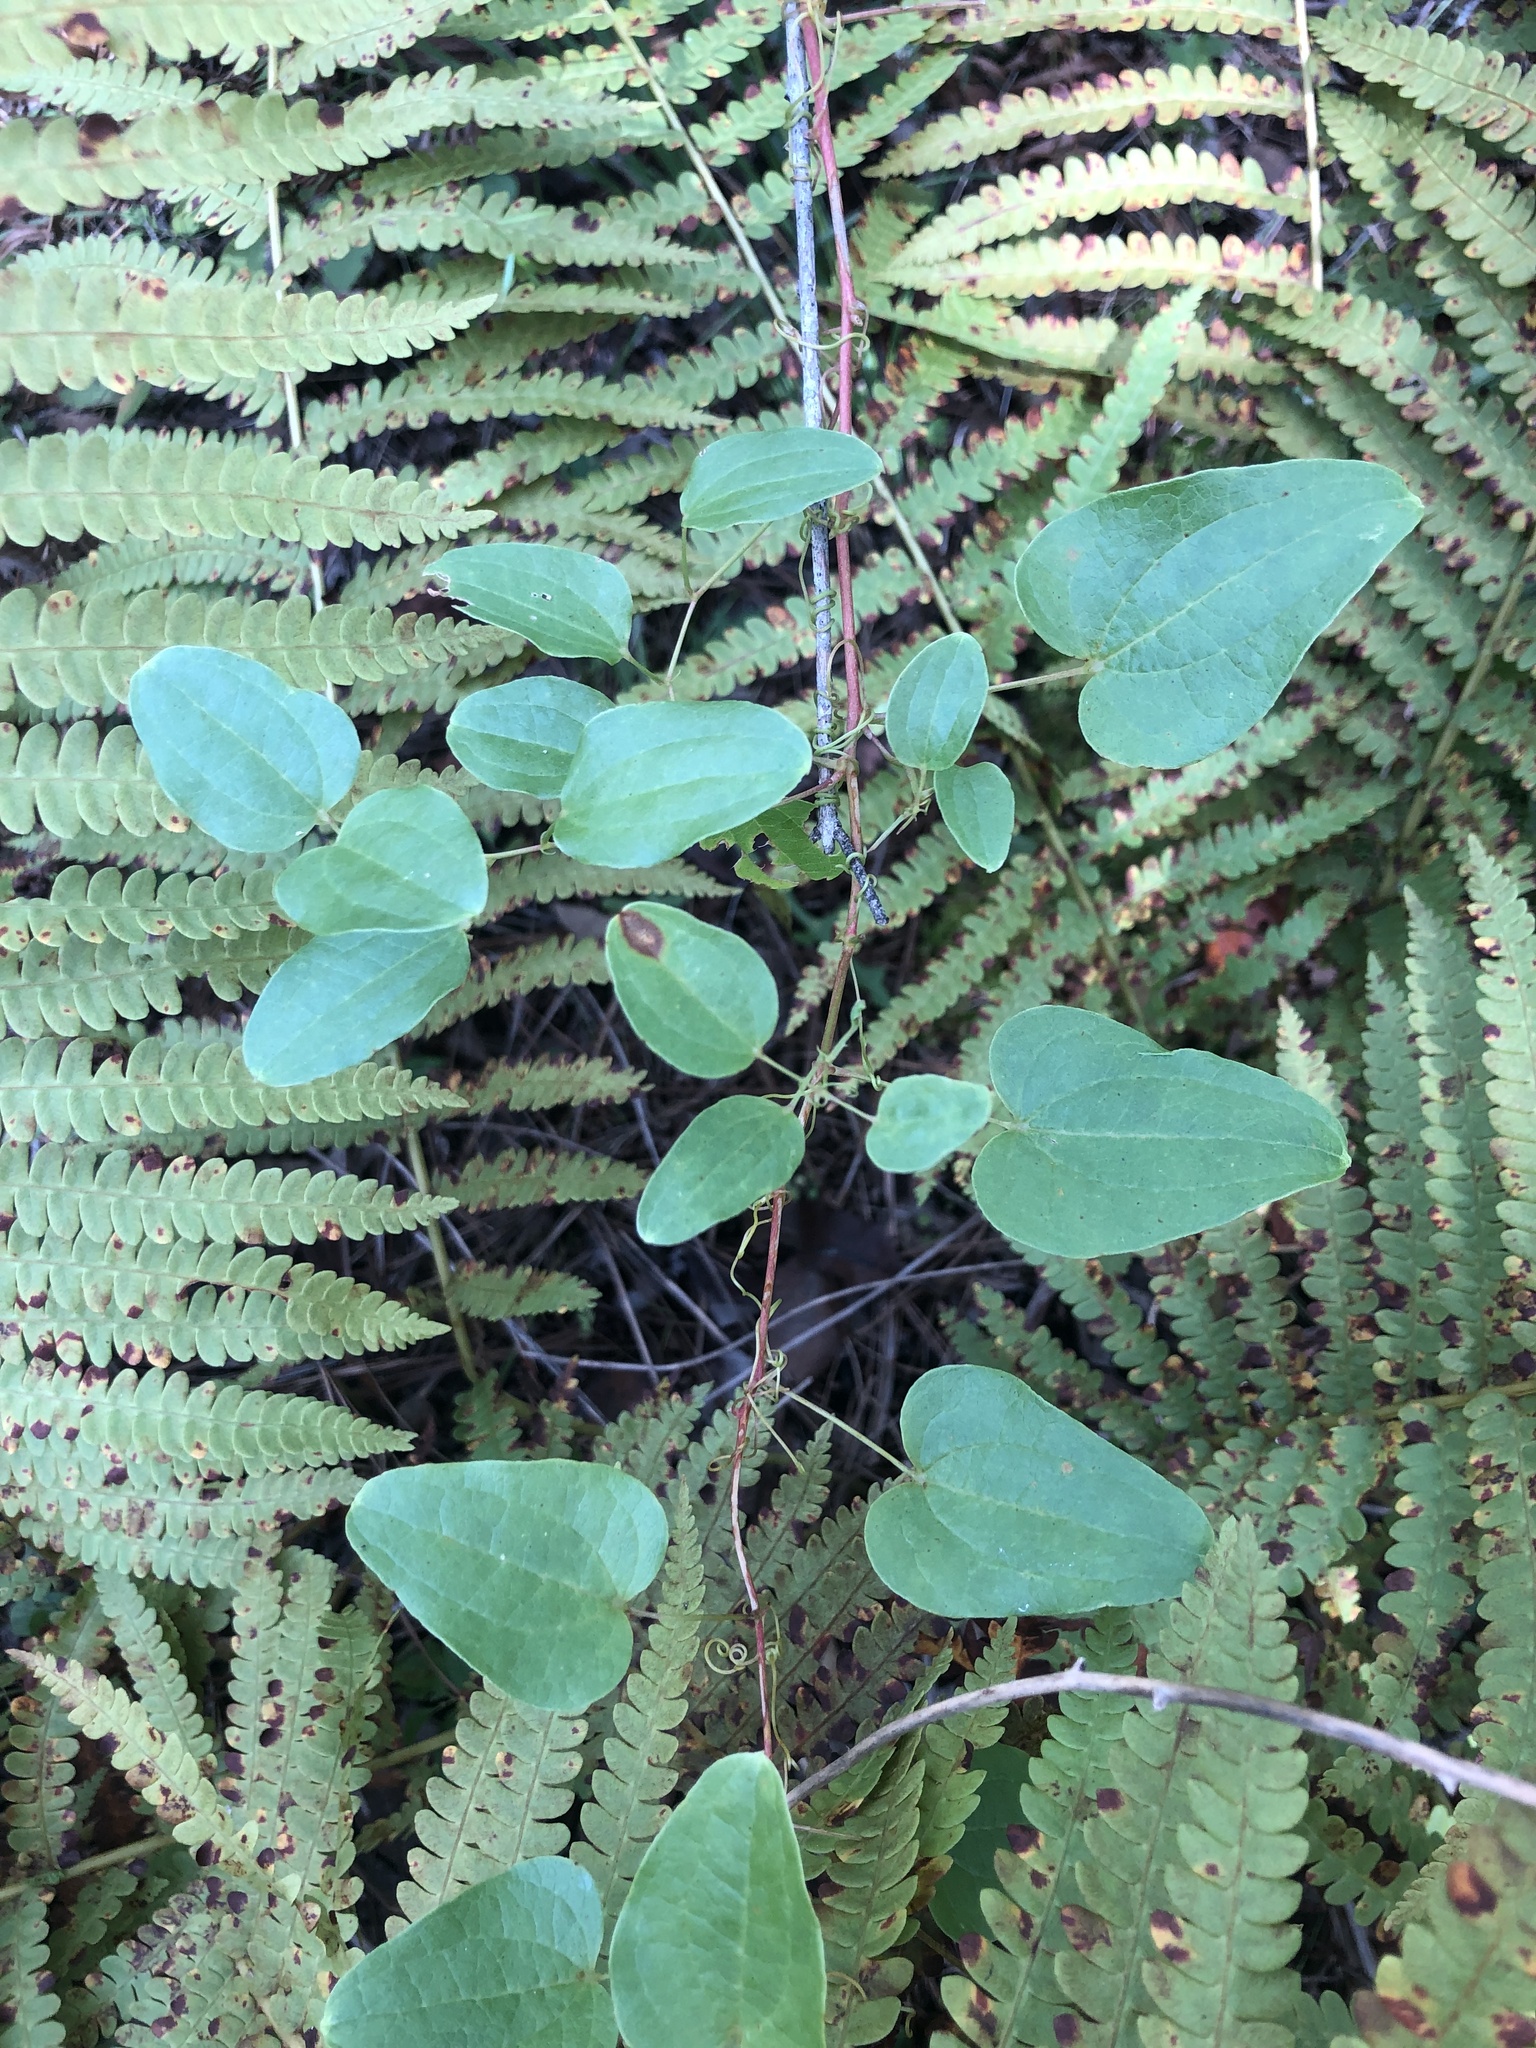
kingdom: Plantae
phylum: Tracheophyta
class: Liliopsida
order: Liliales
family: Smilacaceae
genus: Smilax
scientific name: Smilax pseudochina
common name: False chinaroot
